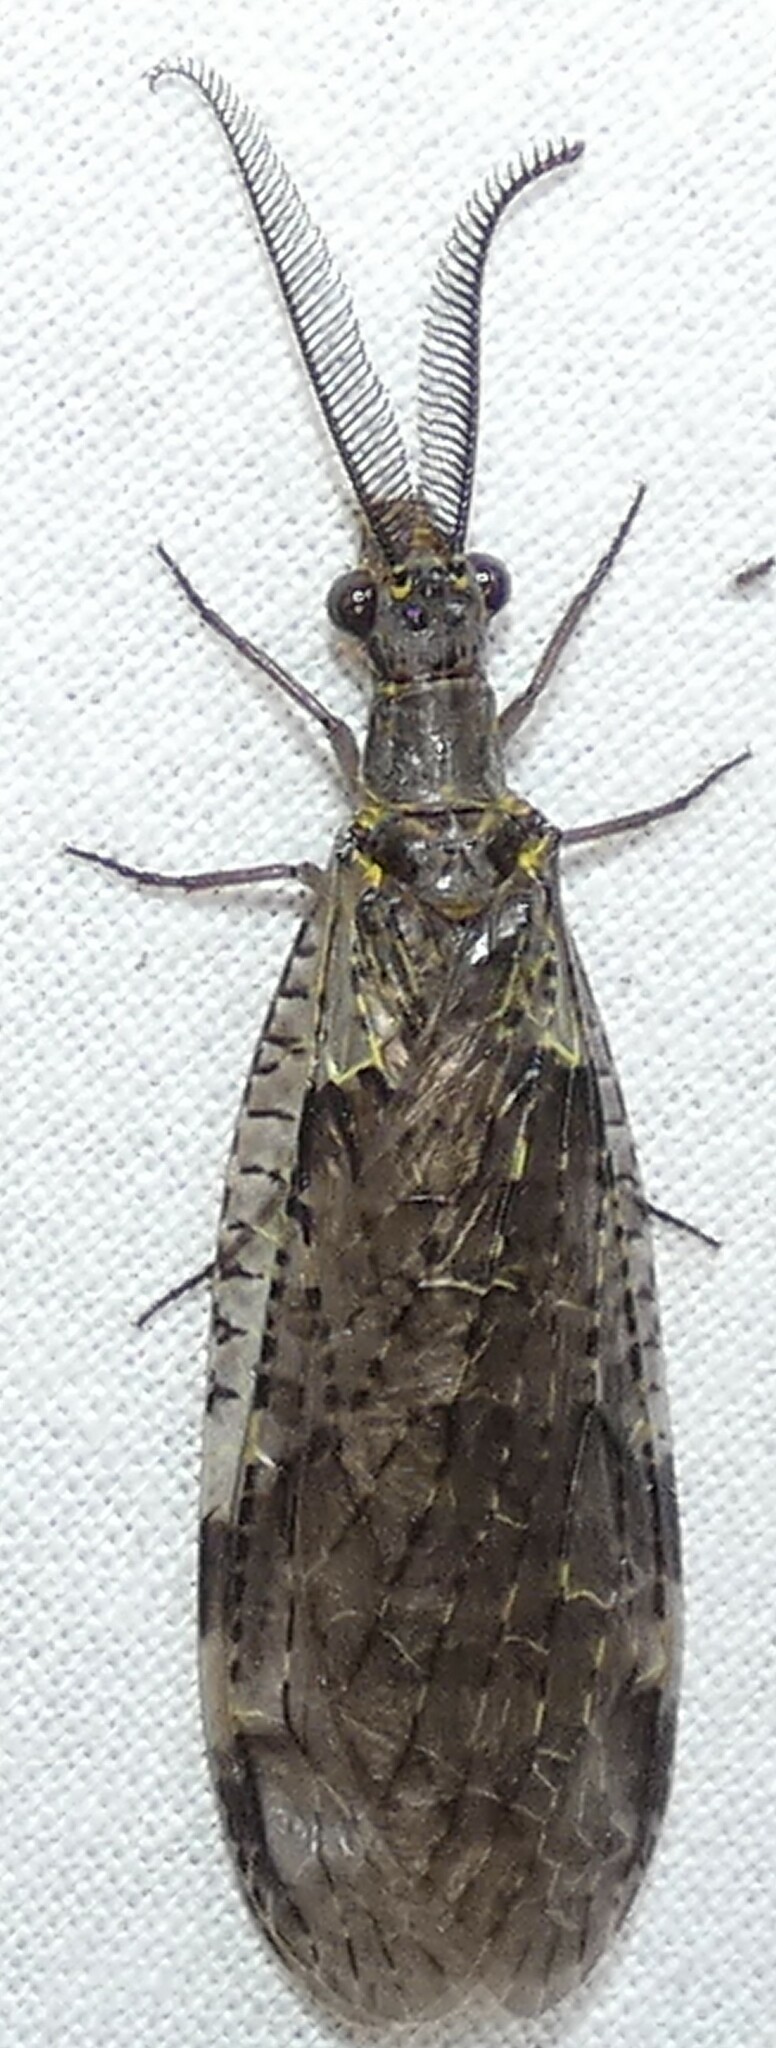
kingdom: Animalia
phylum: Arthropoda
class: Insecta
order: Megaloptera
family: Corydalidae
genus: Chauliodes
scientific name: Chauliodes rastricornis
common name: Spring fishfly
